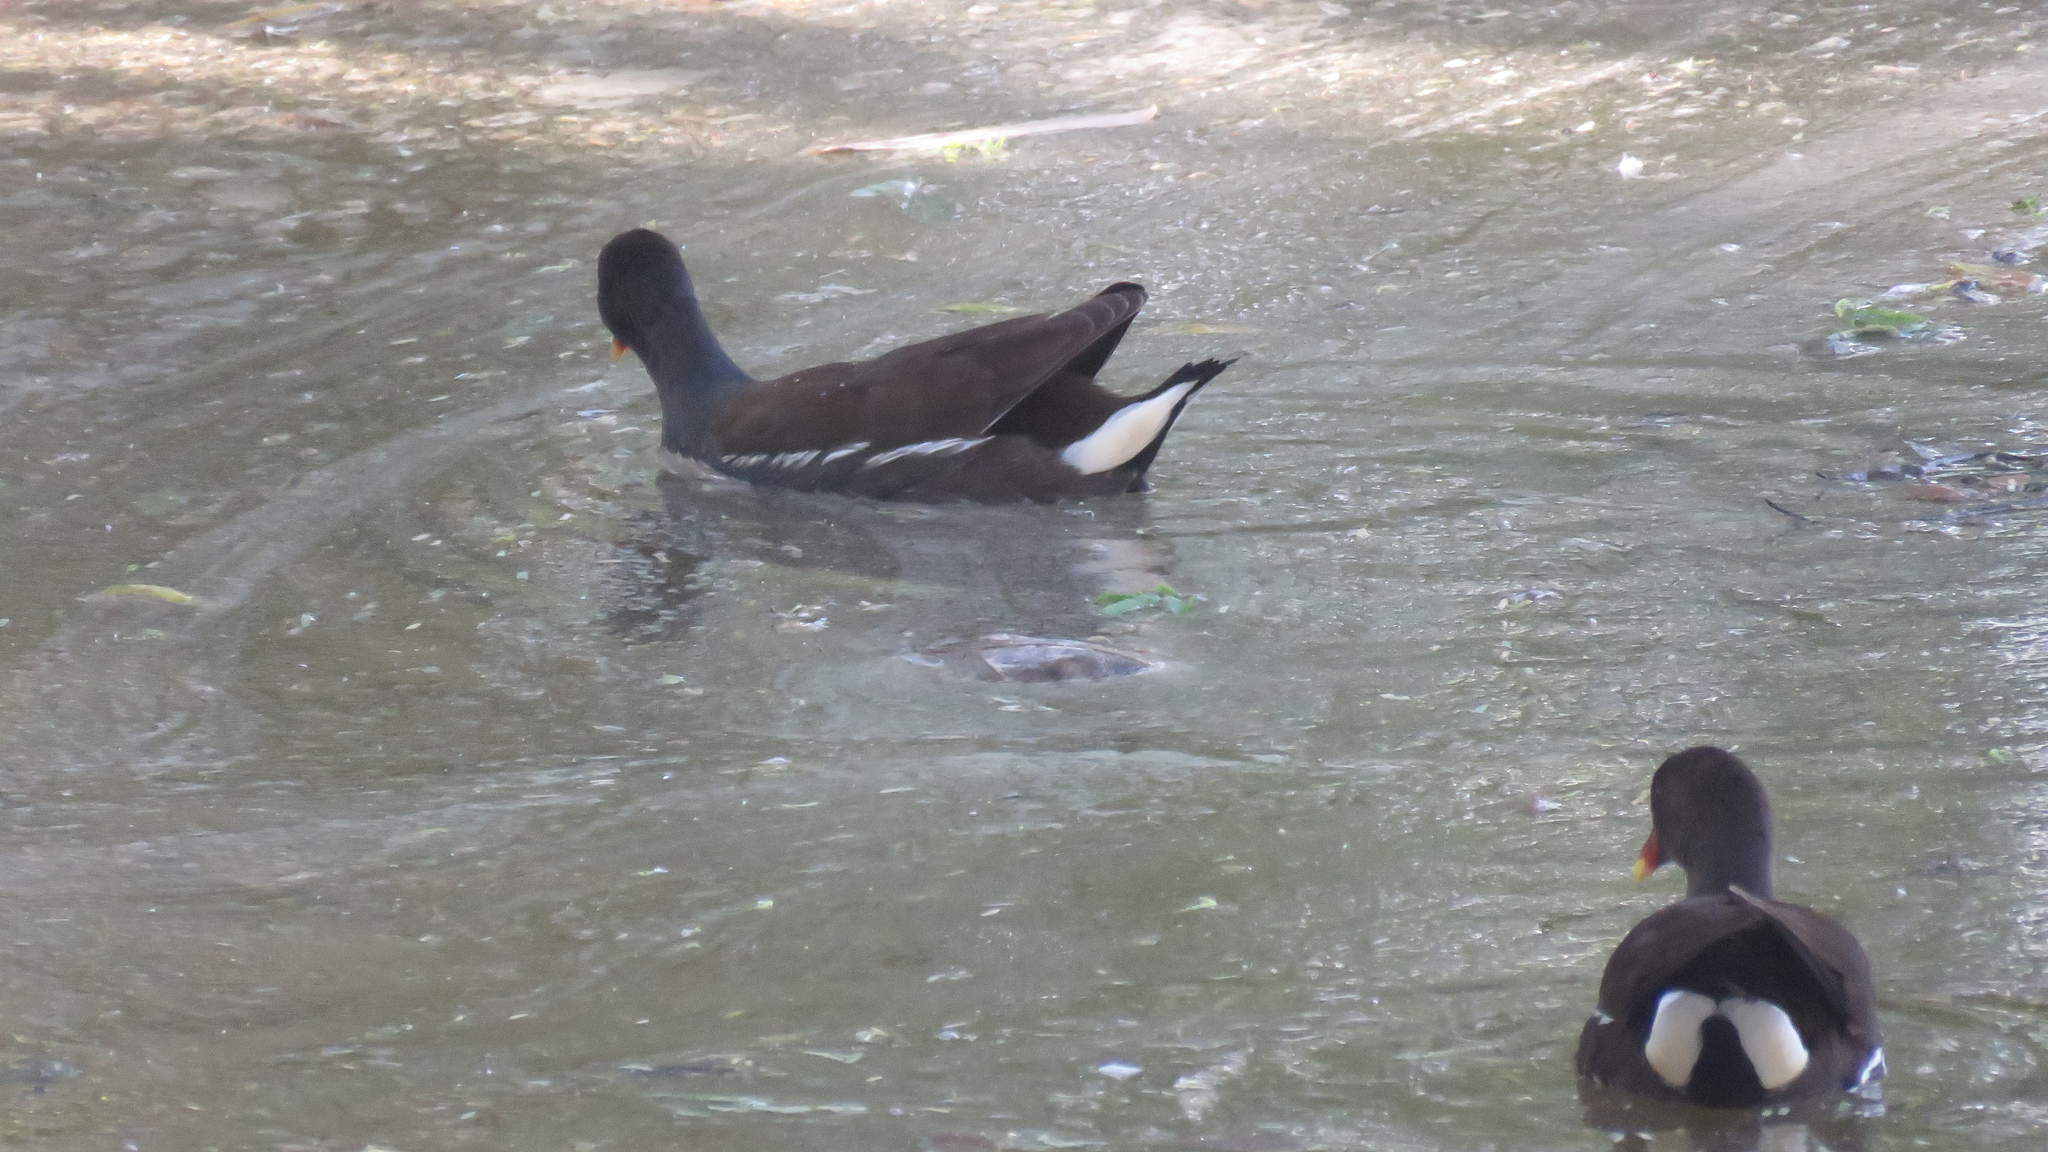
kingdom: Animalia
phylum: Chordata
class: Aves
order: Gruiformes
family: Rallidae
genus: Gallinula
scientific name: Gallinula chloropus
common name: Common moorhen
